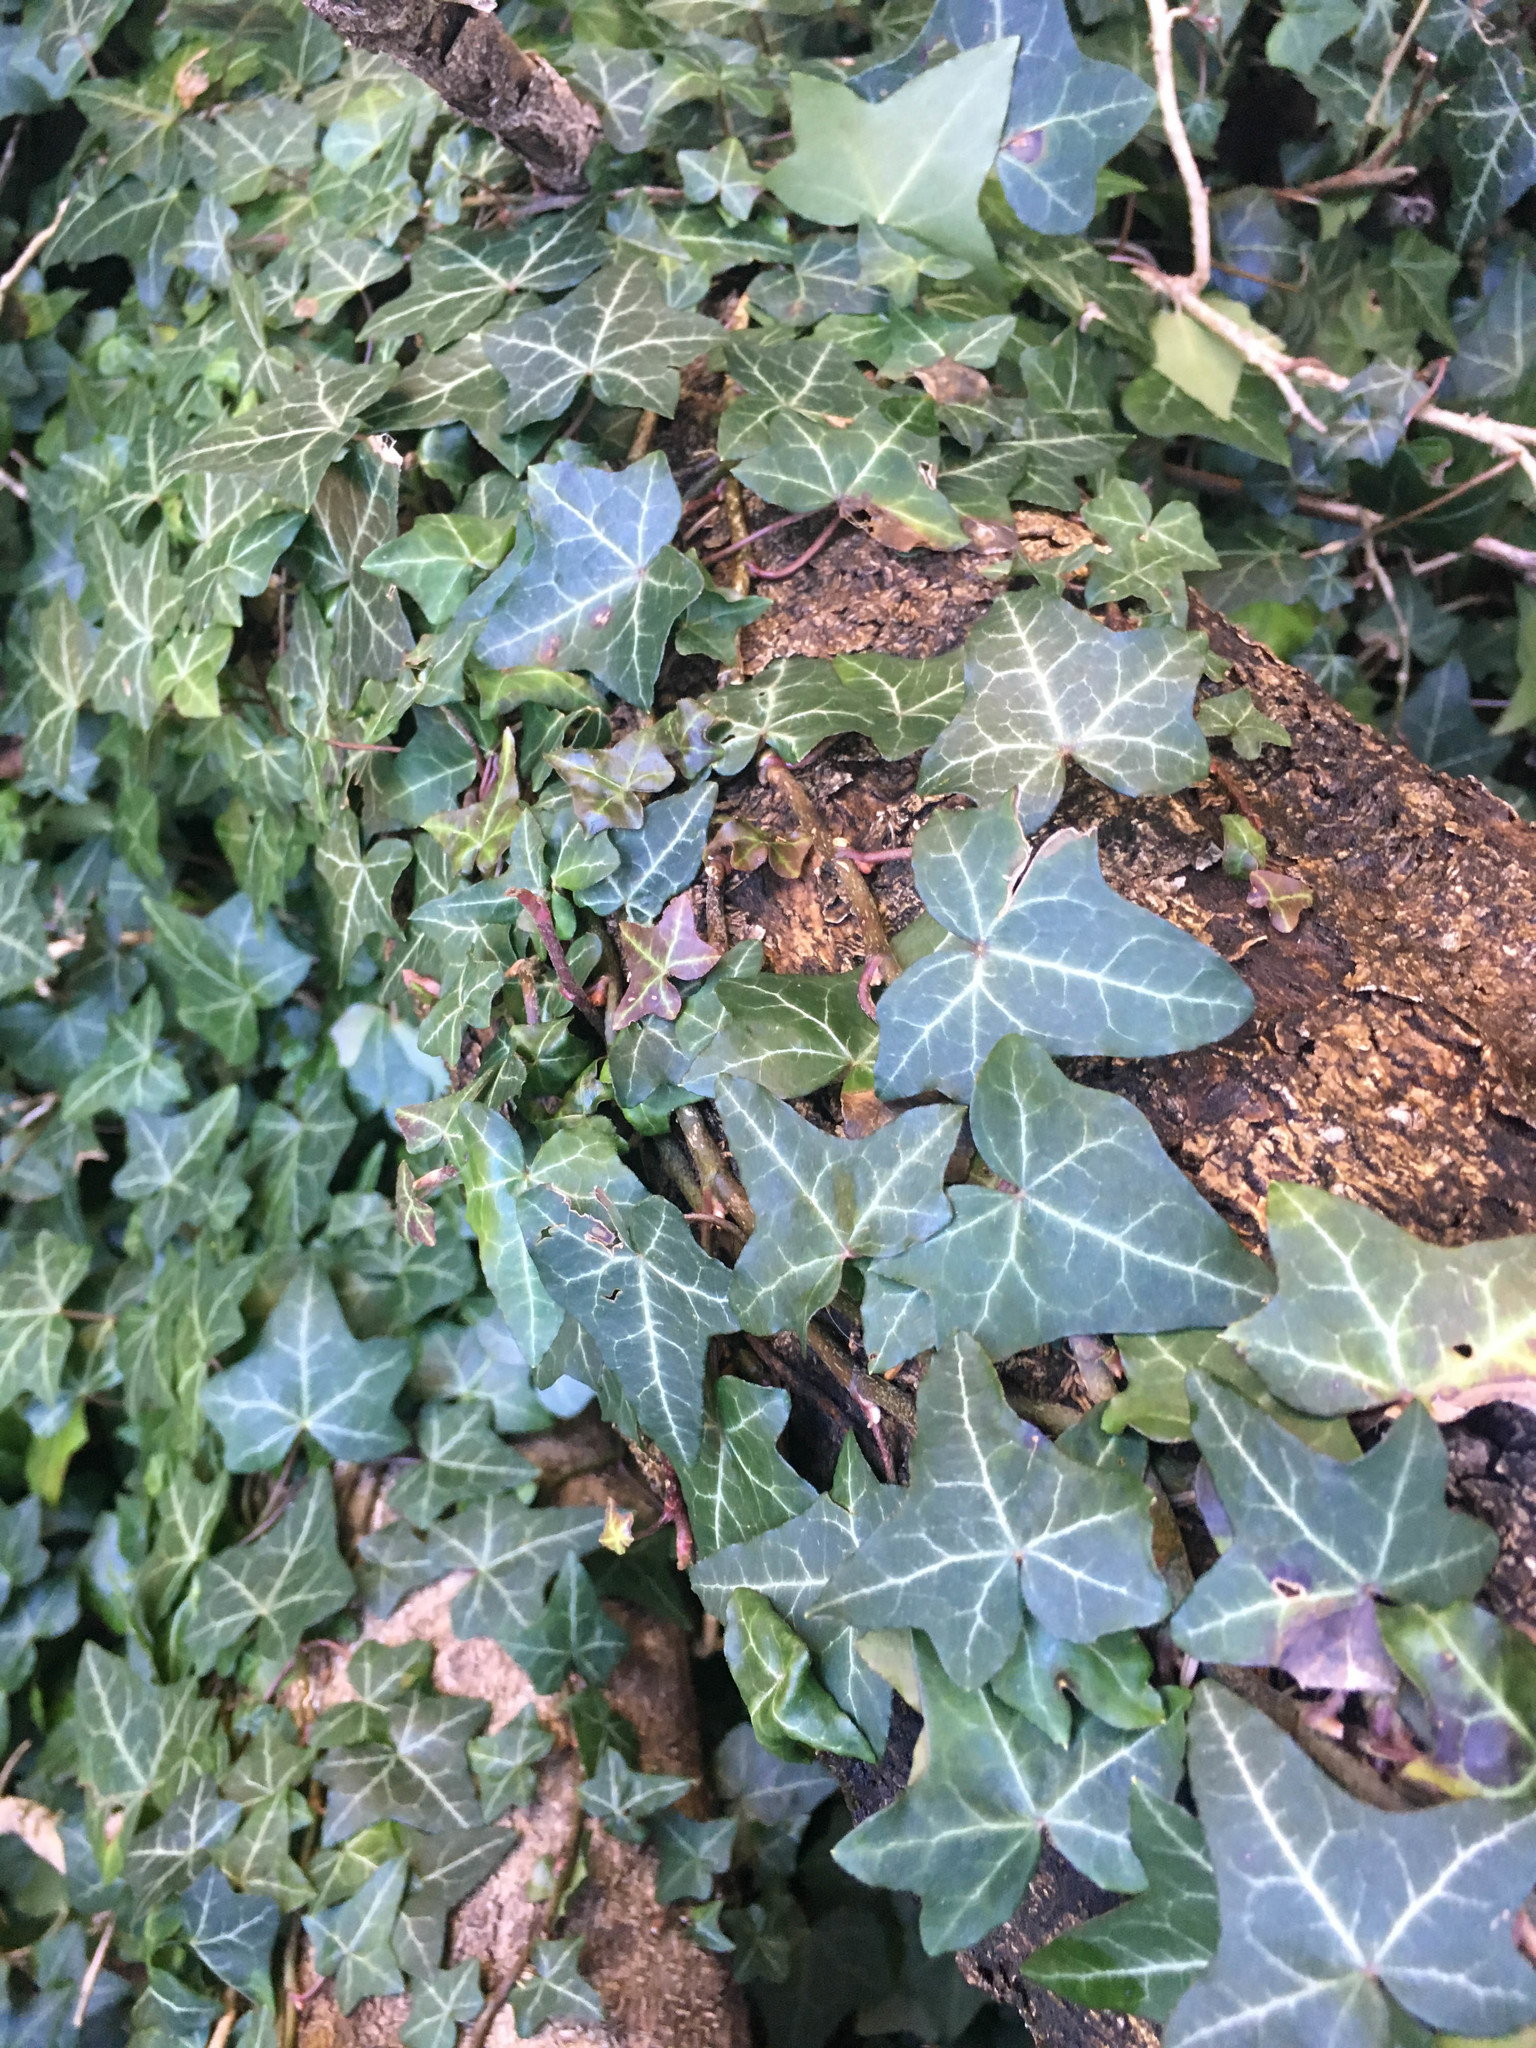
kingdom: Plantae
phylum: Tracheophyta
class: Magnoliopsida
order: Apiales
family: Araliaceae
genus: Hedera
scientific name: Hedera helix
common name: Ivy
